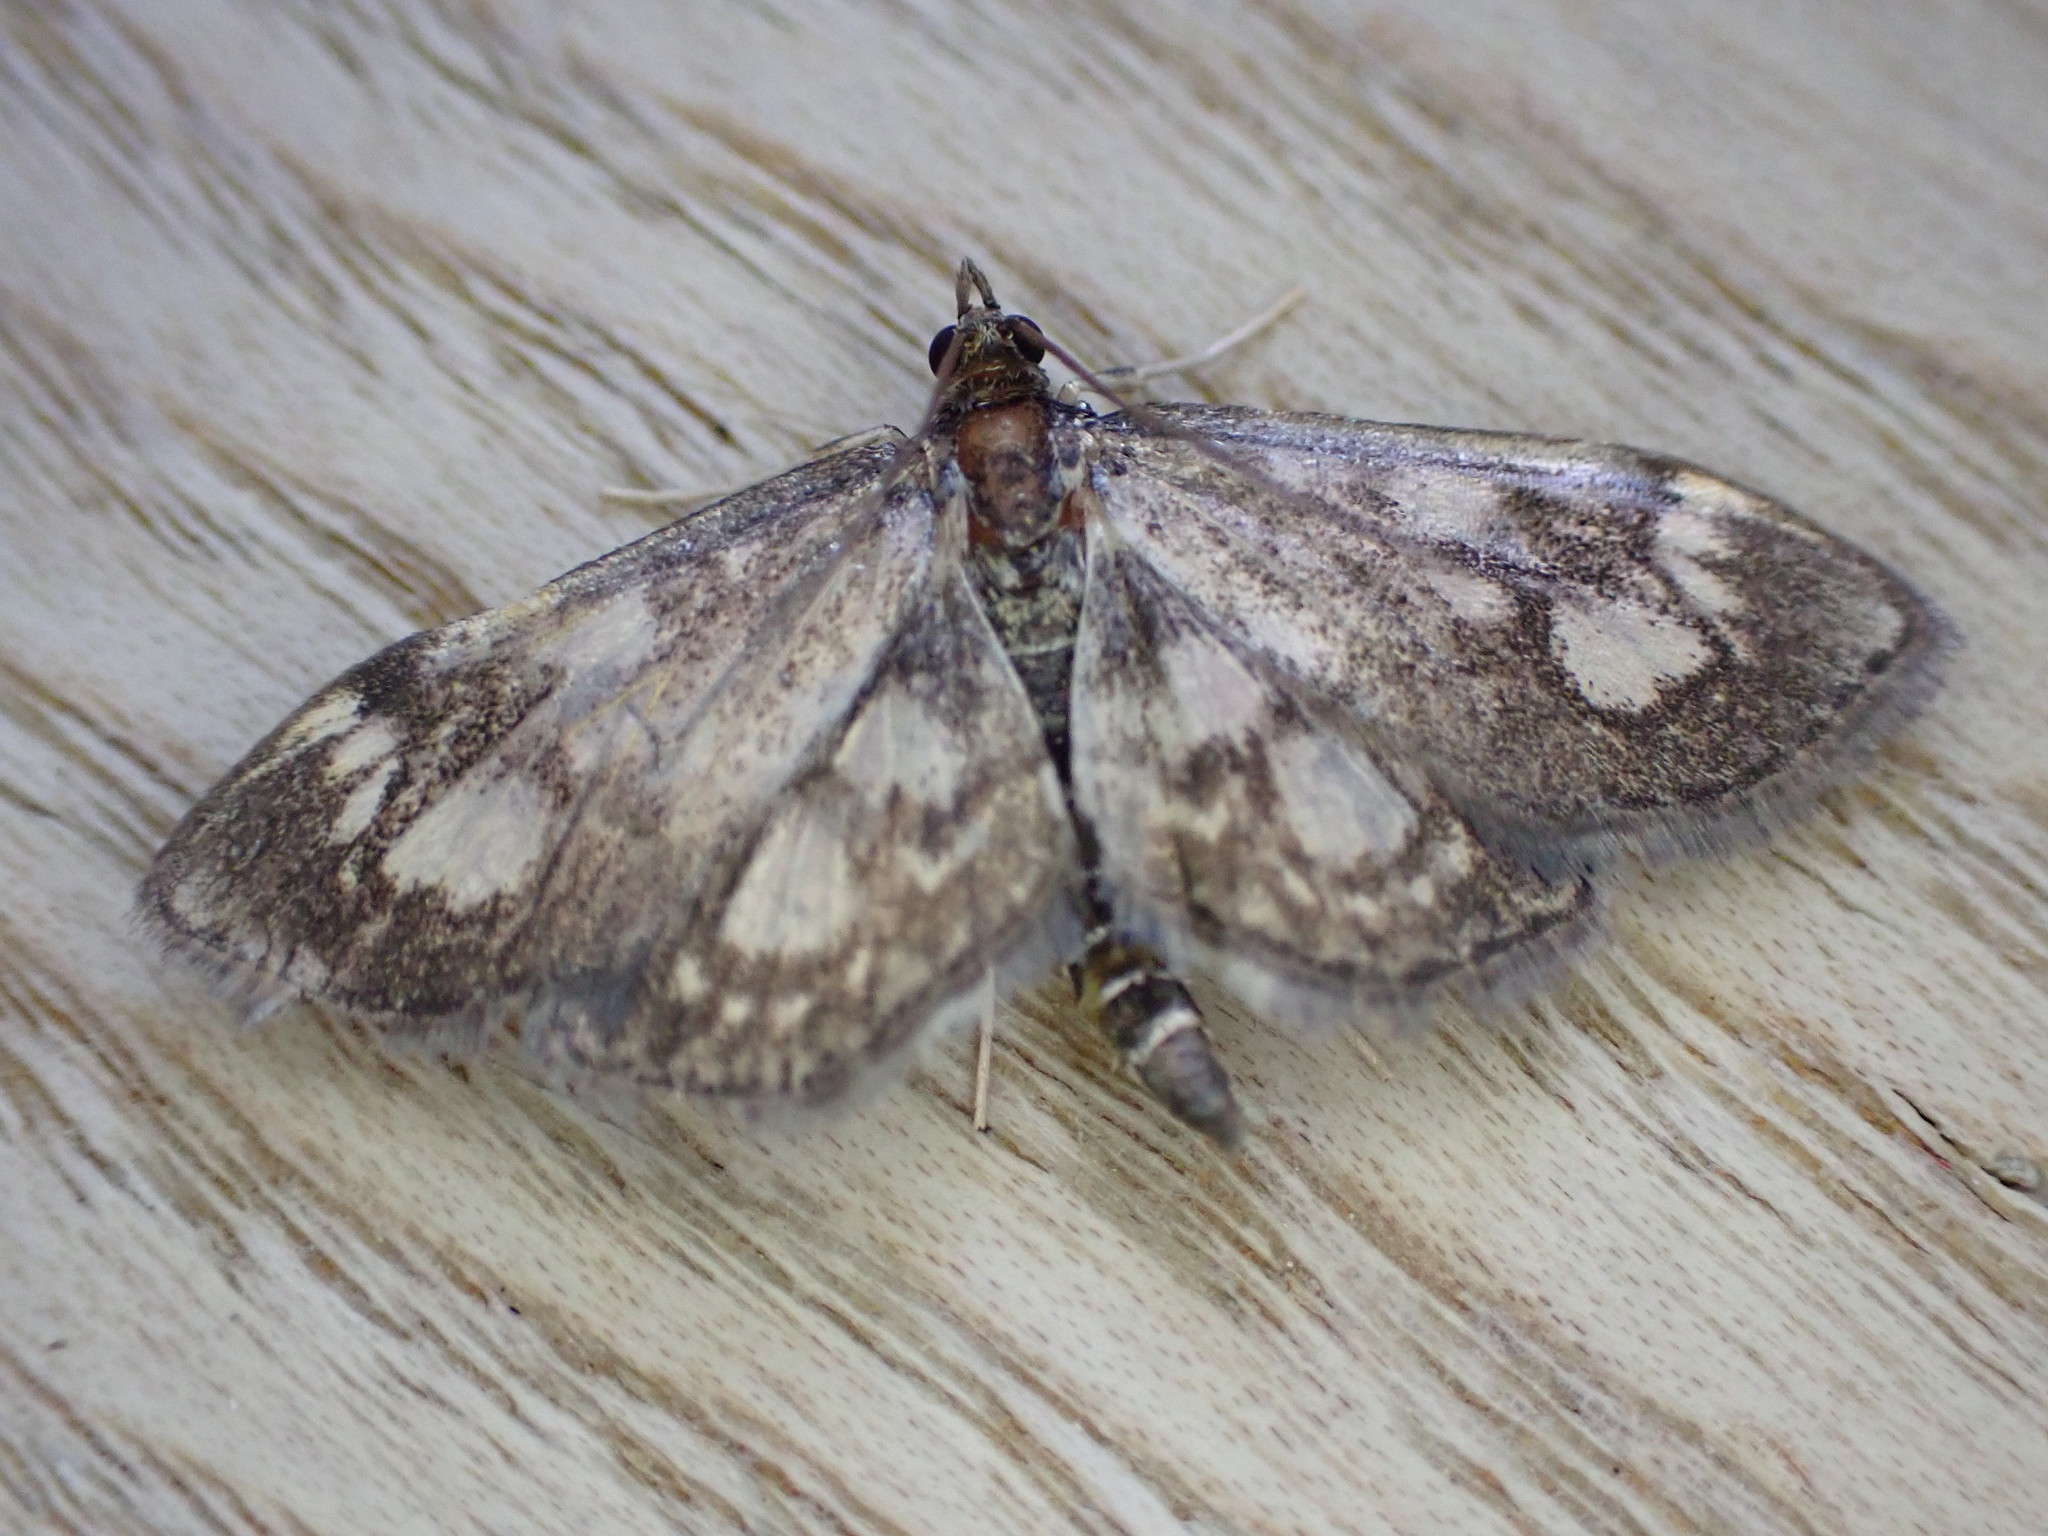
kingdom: Animalia
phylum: Arthropoda
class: Insecta
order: Lepidoptera
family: Crambidae
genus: Anania
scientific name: Anania coronata
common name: Elder pearl
